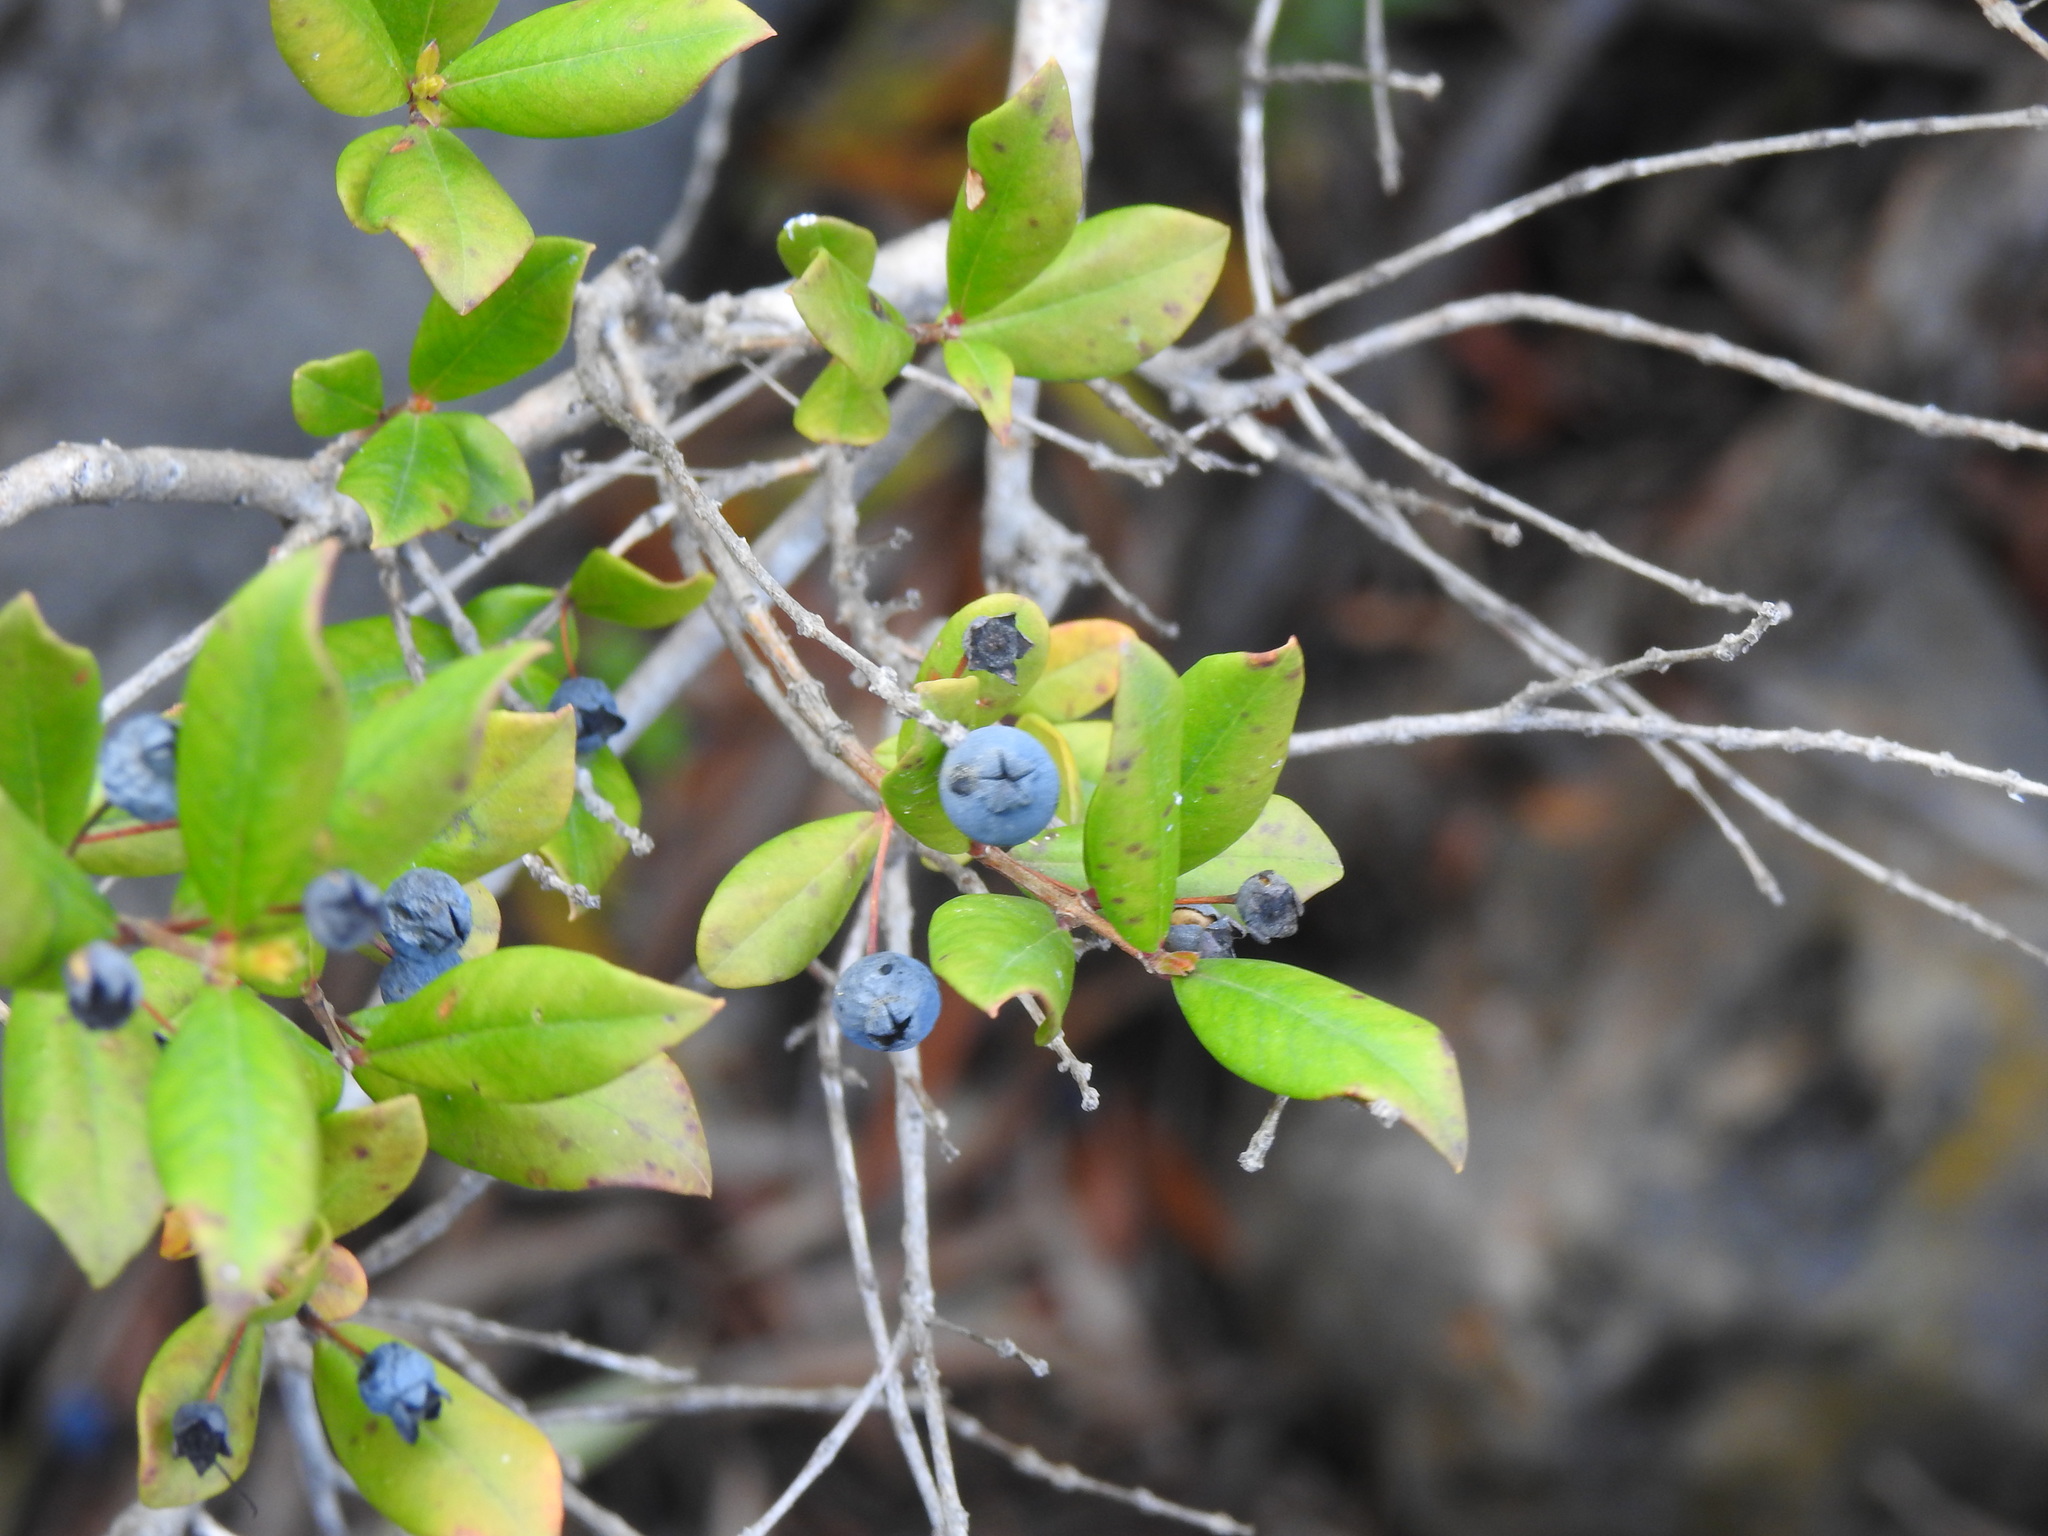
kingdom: Plantae
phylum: Tracheophyta
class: Magnoliopsida
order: Myrtales
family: Myrtaceae
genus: Myrtus
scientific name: Myrtus communis
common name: Myrtle
